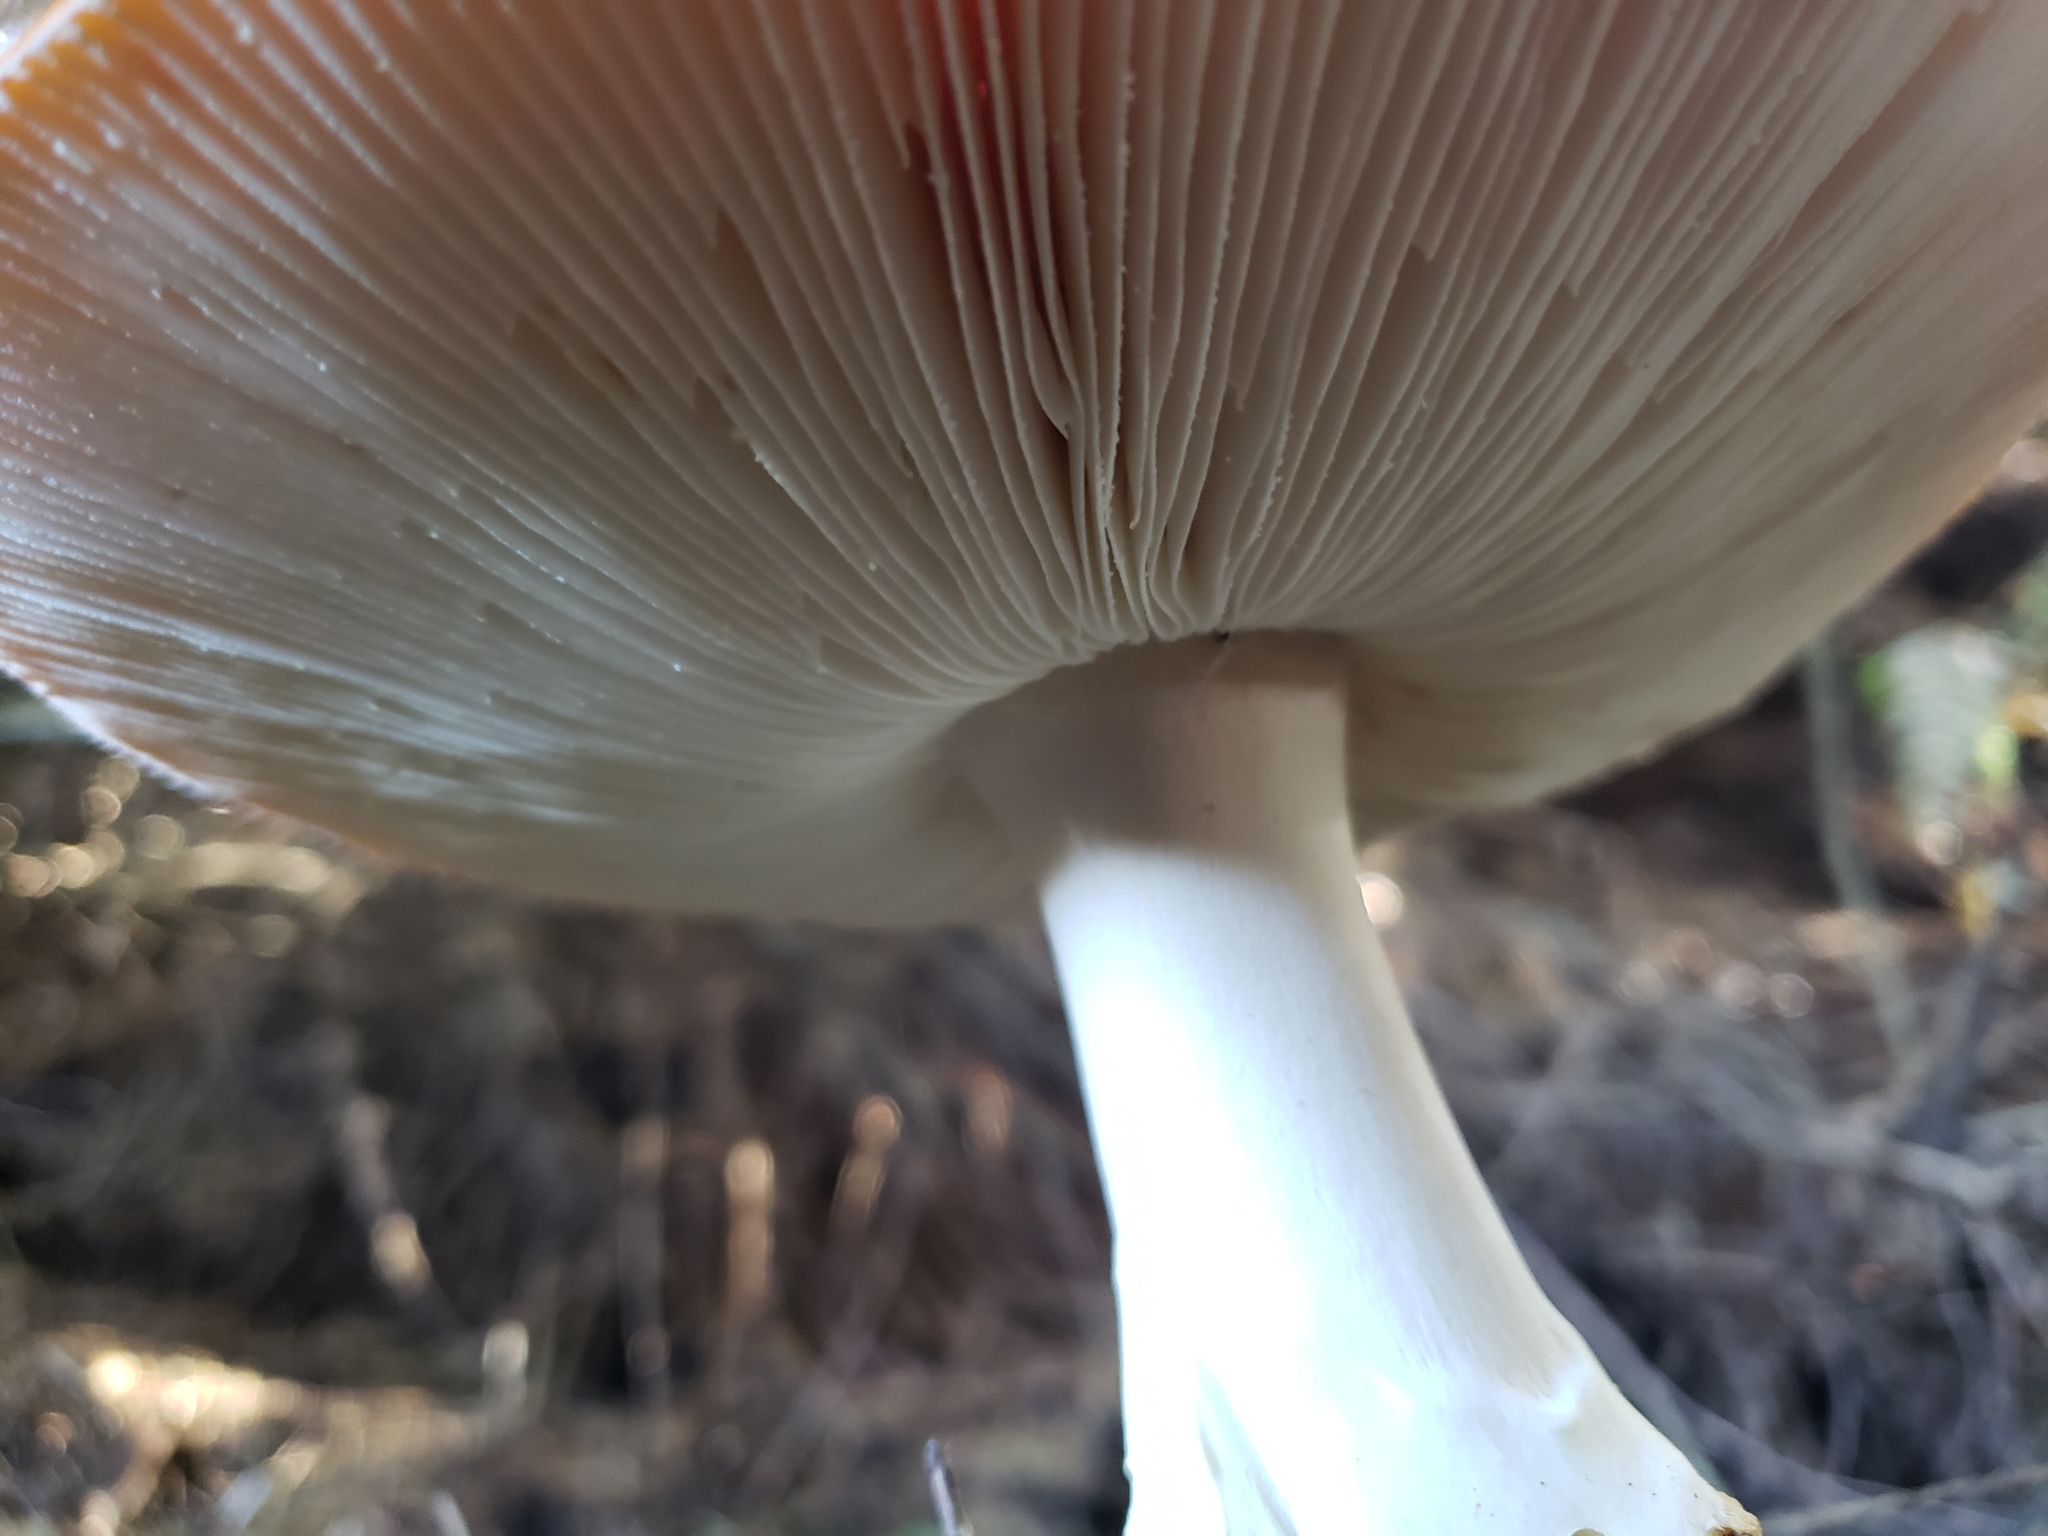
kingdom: Fungi
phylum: Basidiomycota
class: Agaricomycetes
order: Agaricales
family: Amanitaceae
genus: Amanita
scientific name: Amanita muscaria
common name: Fly agaric
